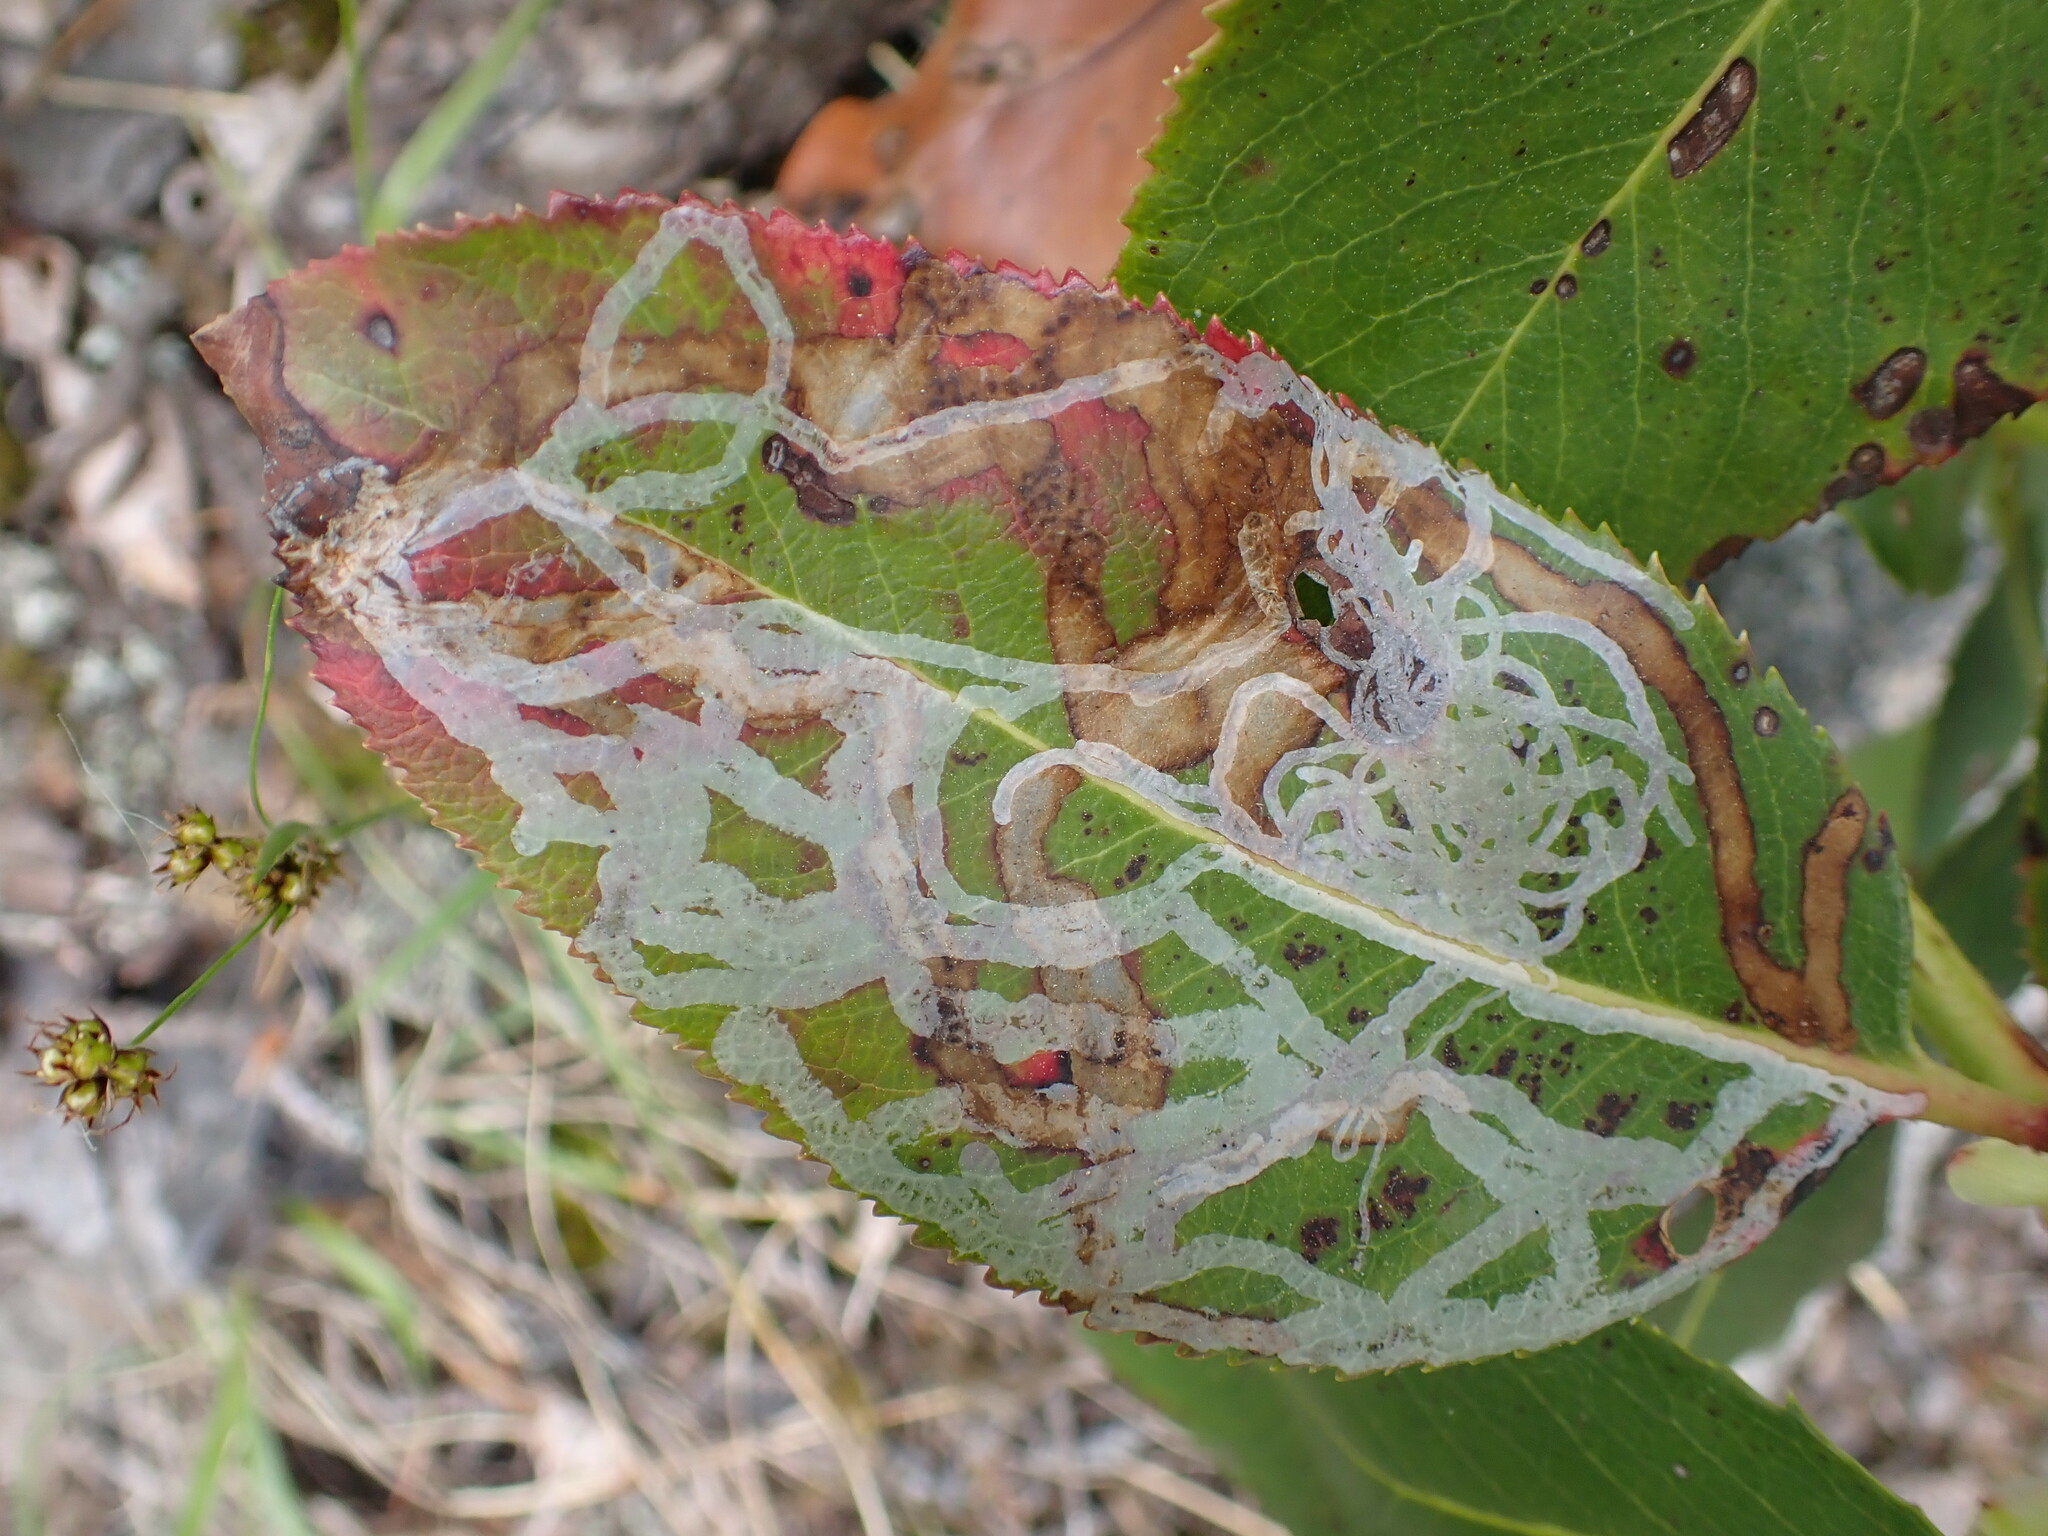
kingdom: Animalia
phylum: Arthropoda
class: Insecta
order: Lepidoptera
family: Gracillariidae
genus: Marmara
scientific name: Marmara arbutiella
